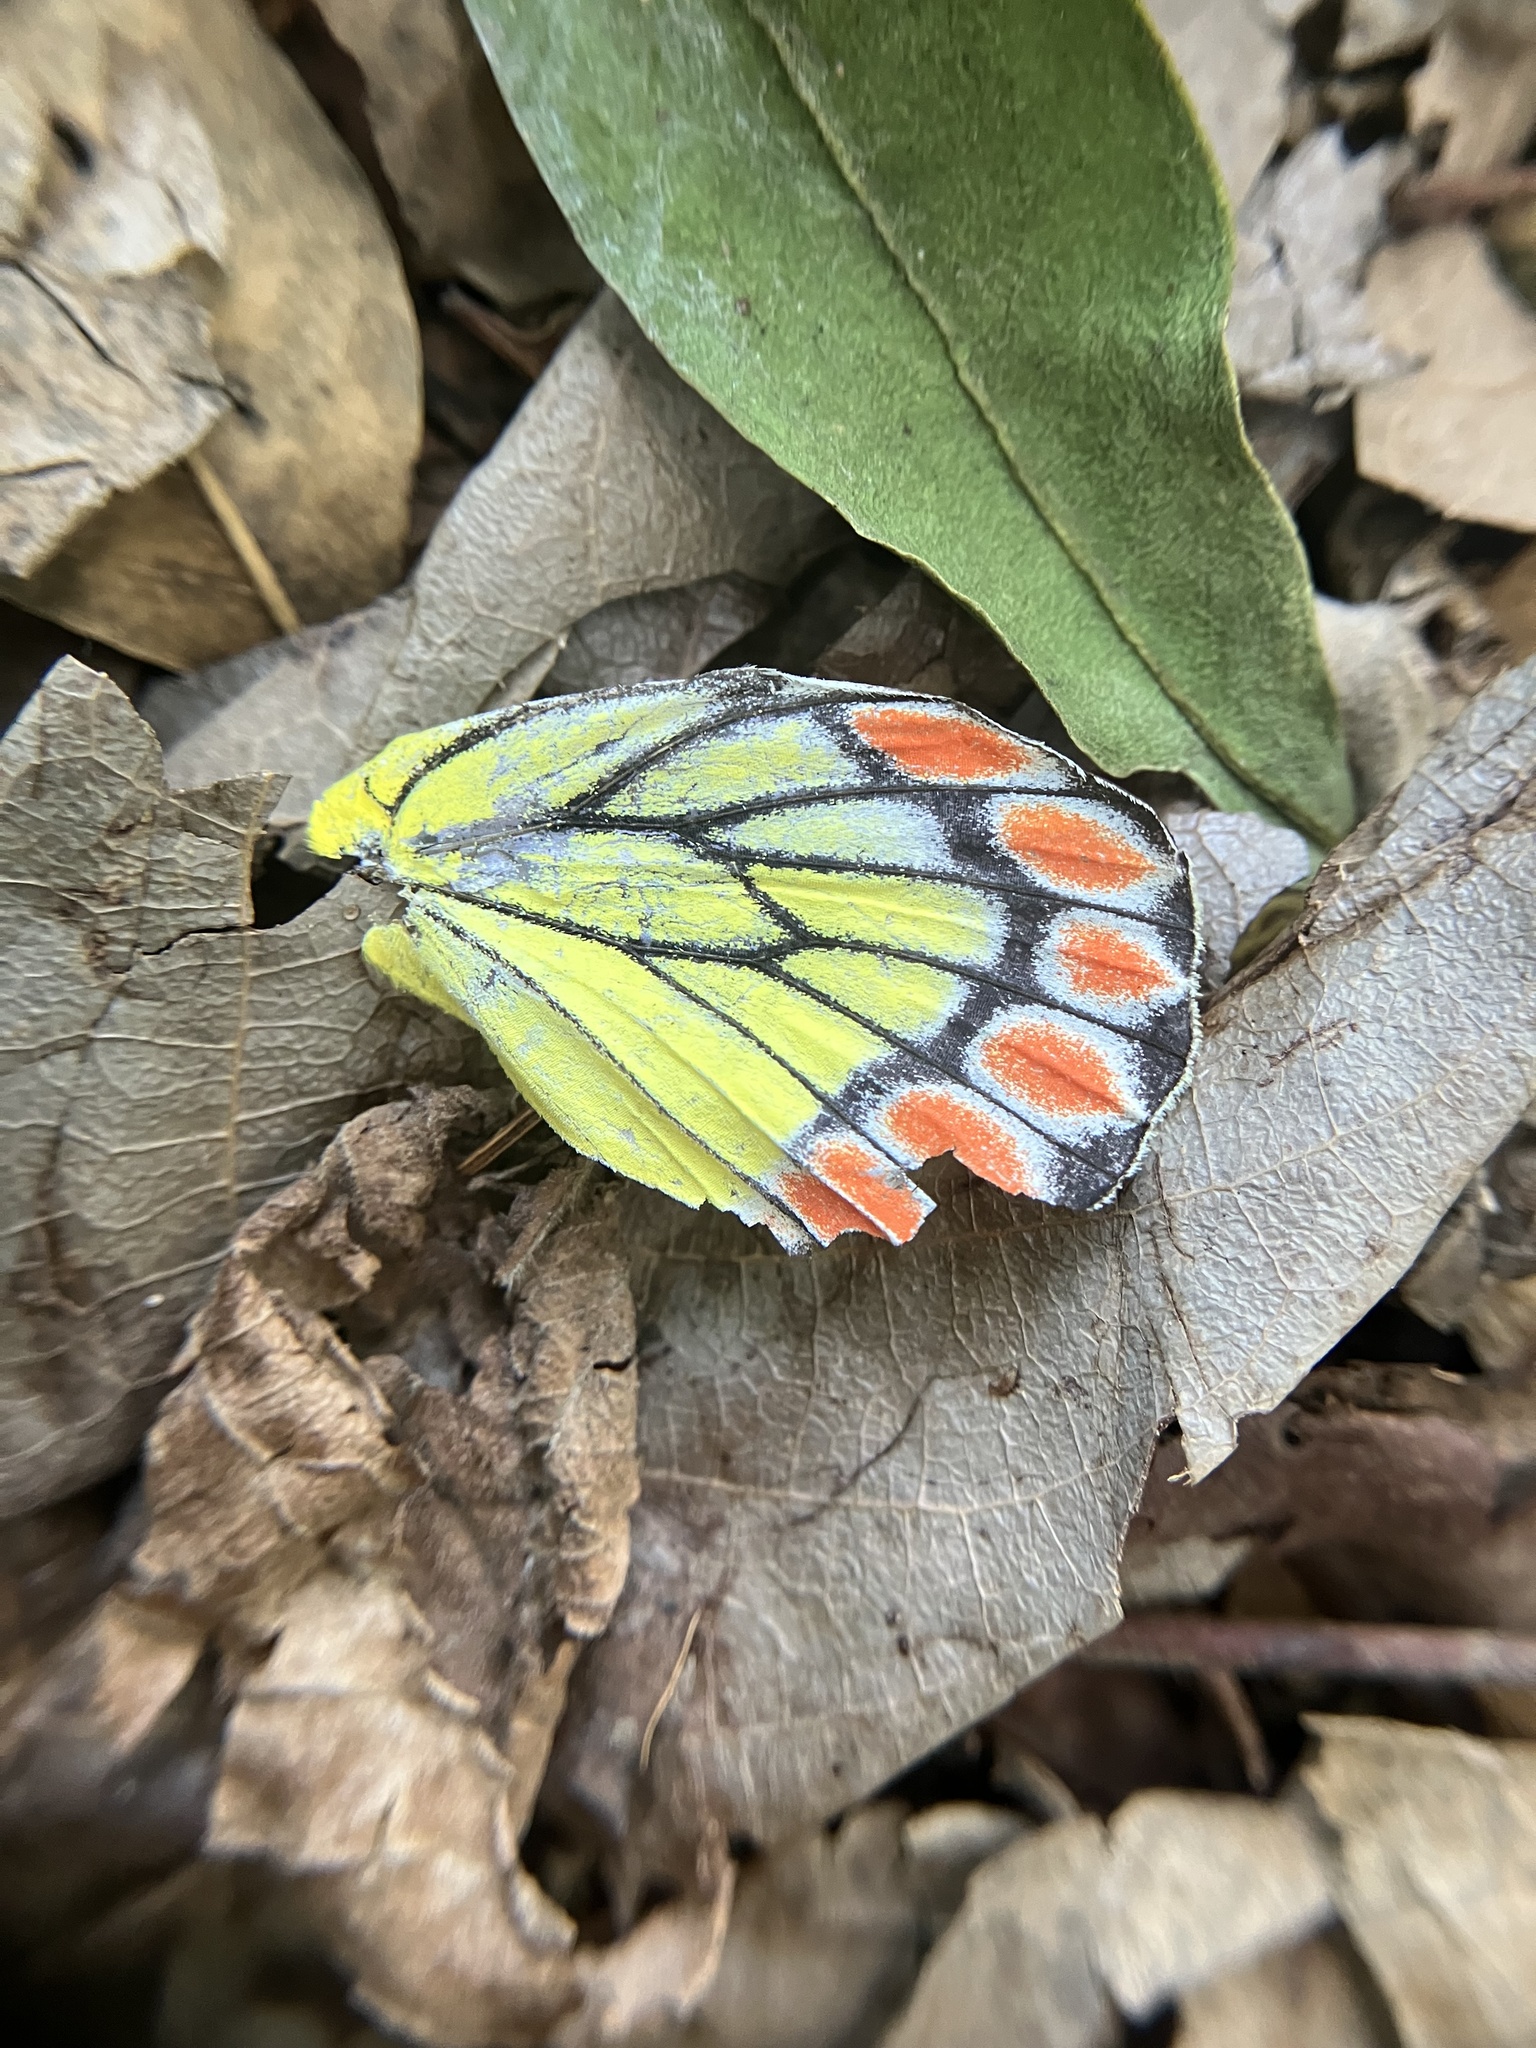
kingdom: Animalia
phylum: Arthropoda
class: Insecta
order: Lepidoptera
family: Pieridae
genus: Delias
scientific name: Delias eucharis
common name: Common jezebel
